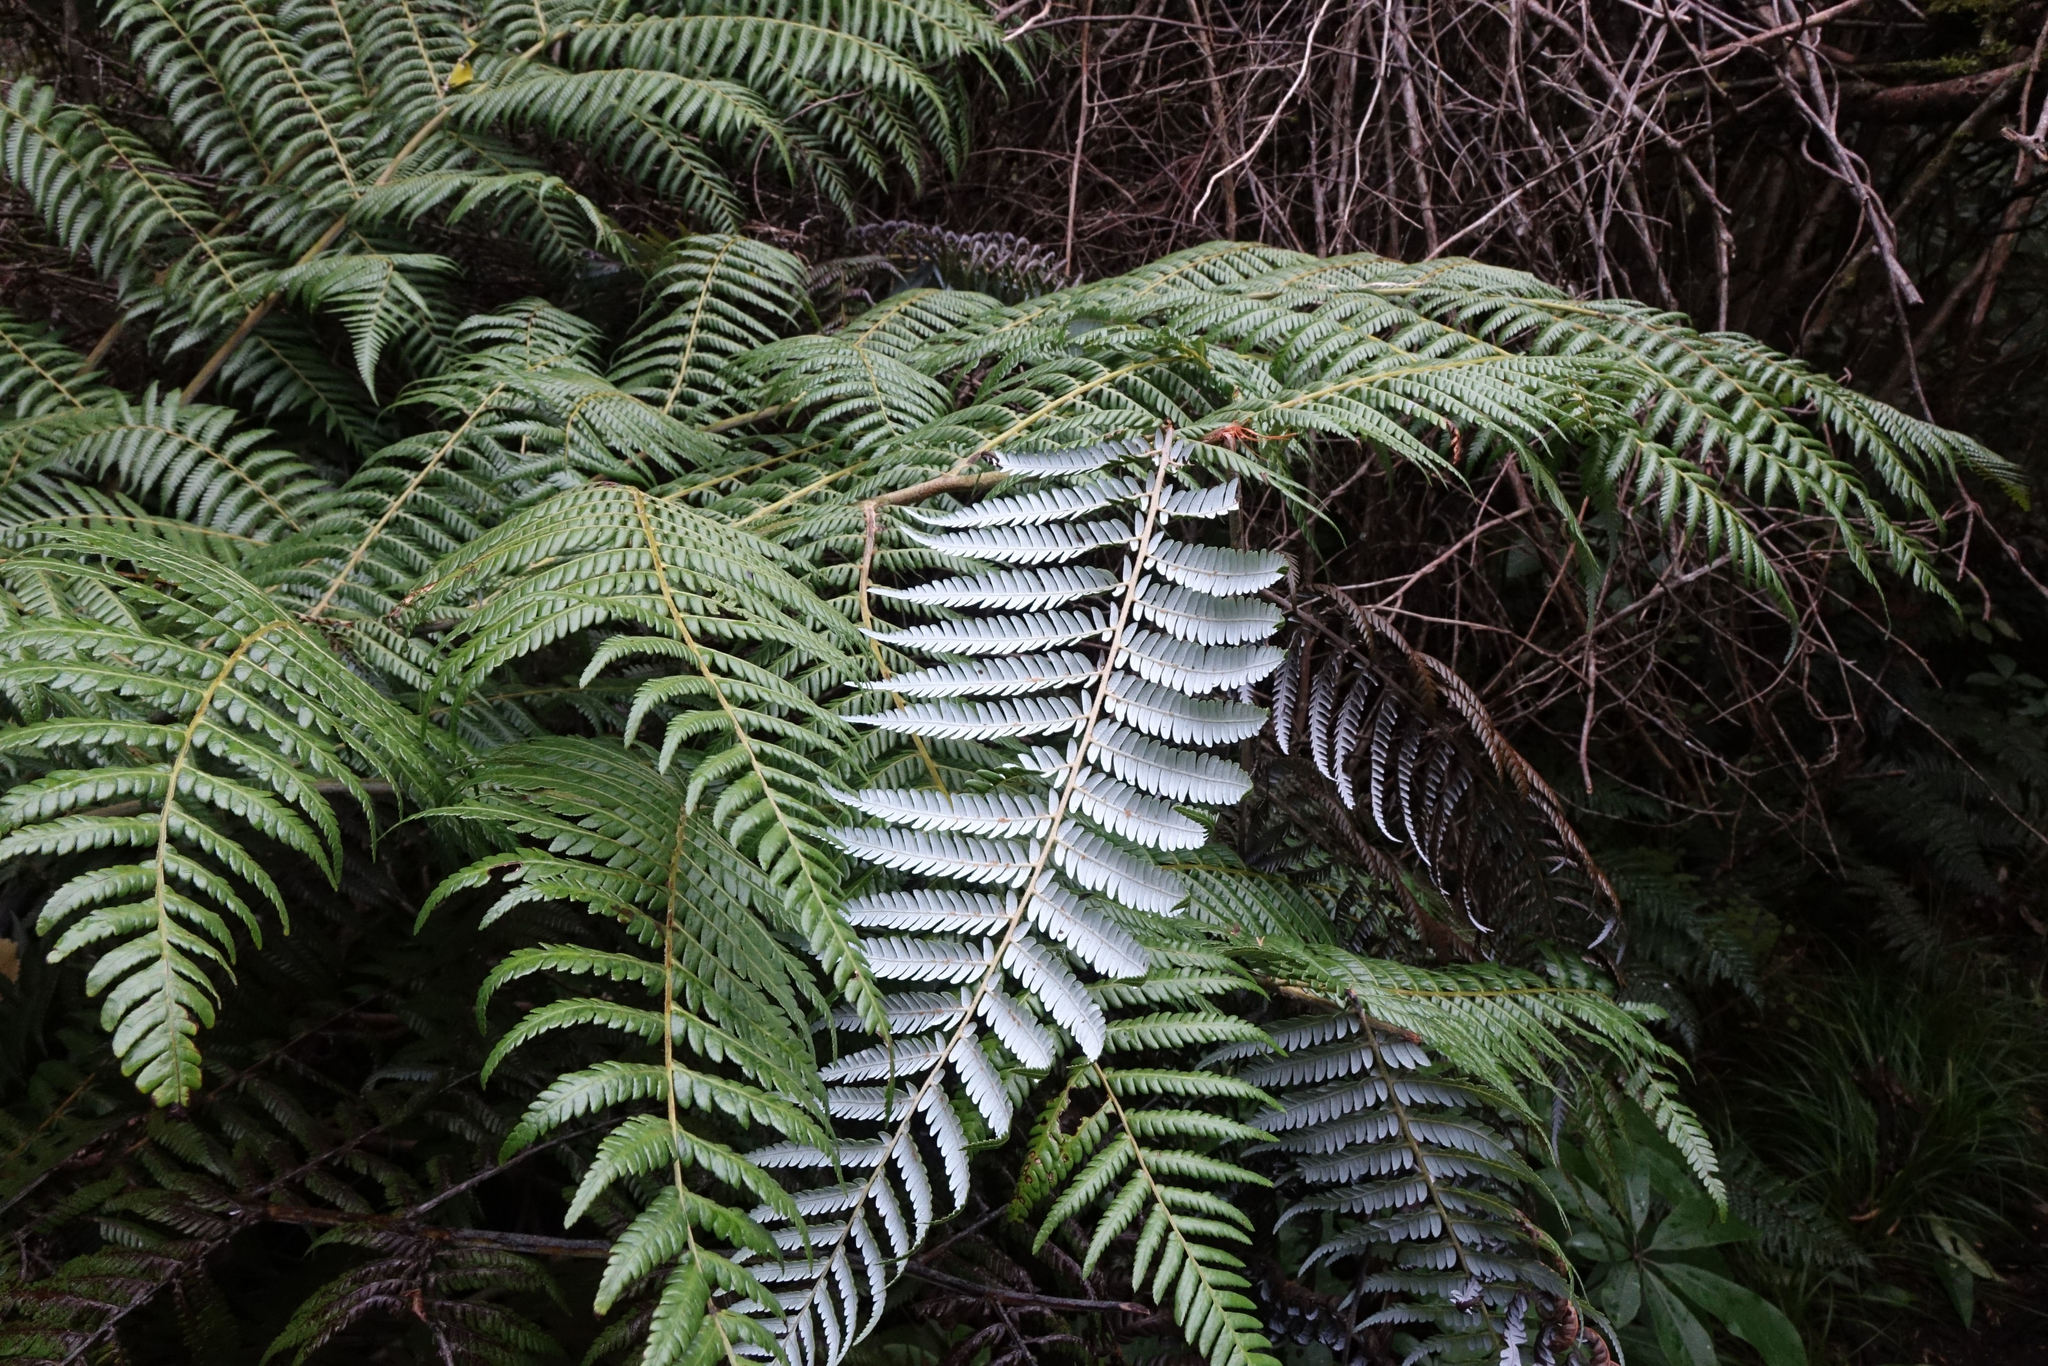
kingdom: Plantae
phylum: Tracheophyta
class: Polypodiopsida
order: Cyatheales
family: Cyatheaceae
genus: Alsophila
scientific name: Alsophila dealbata
